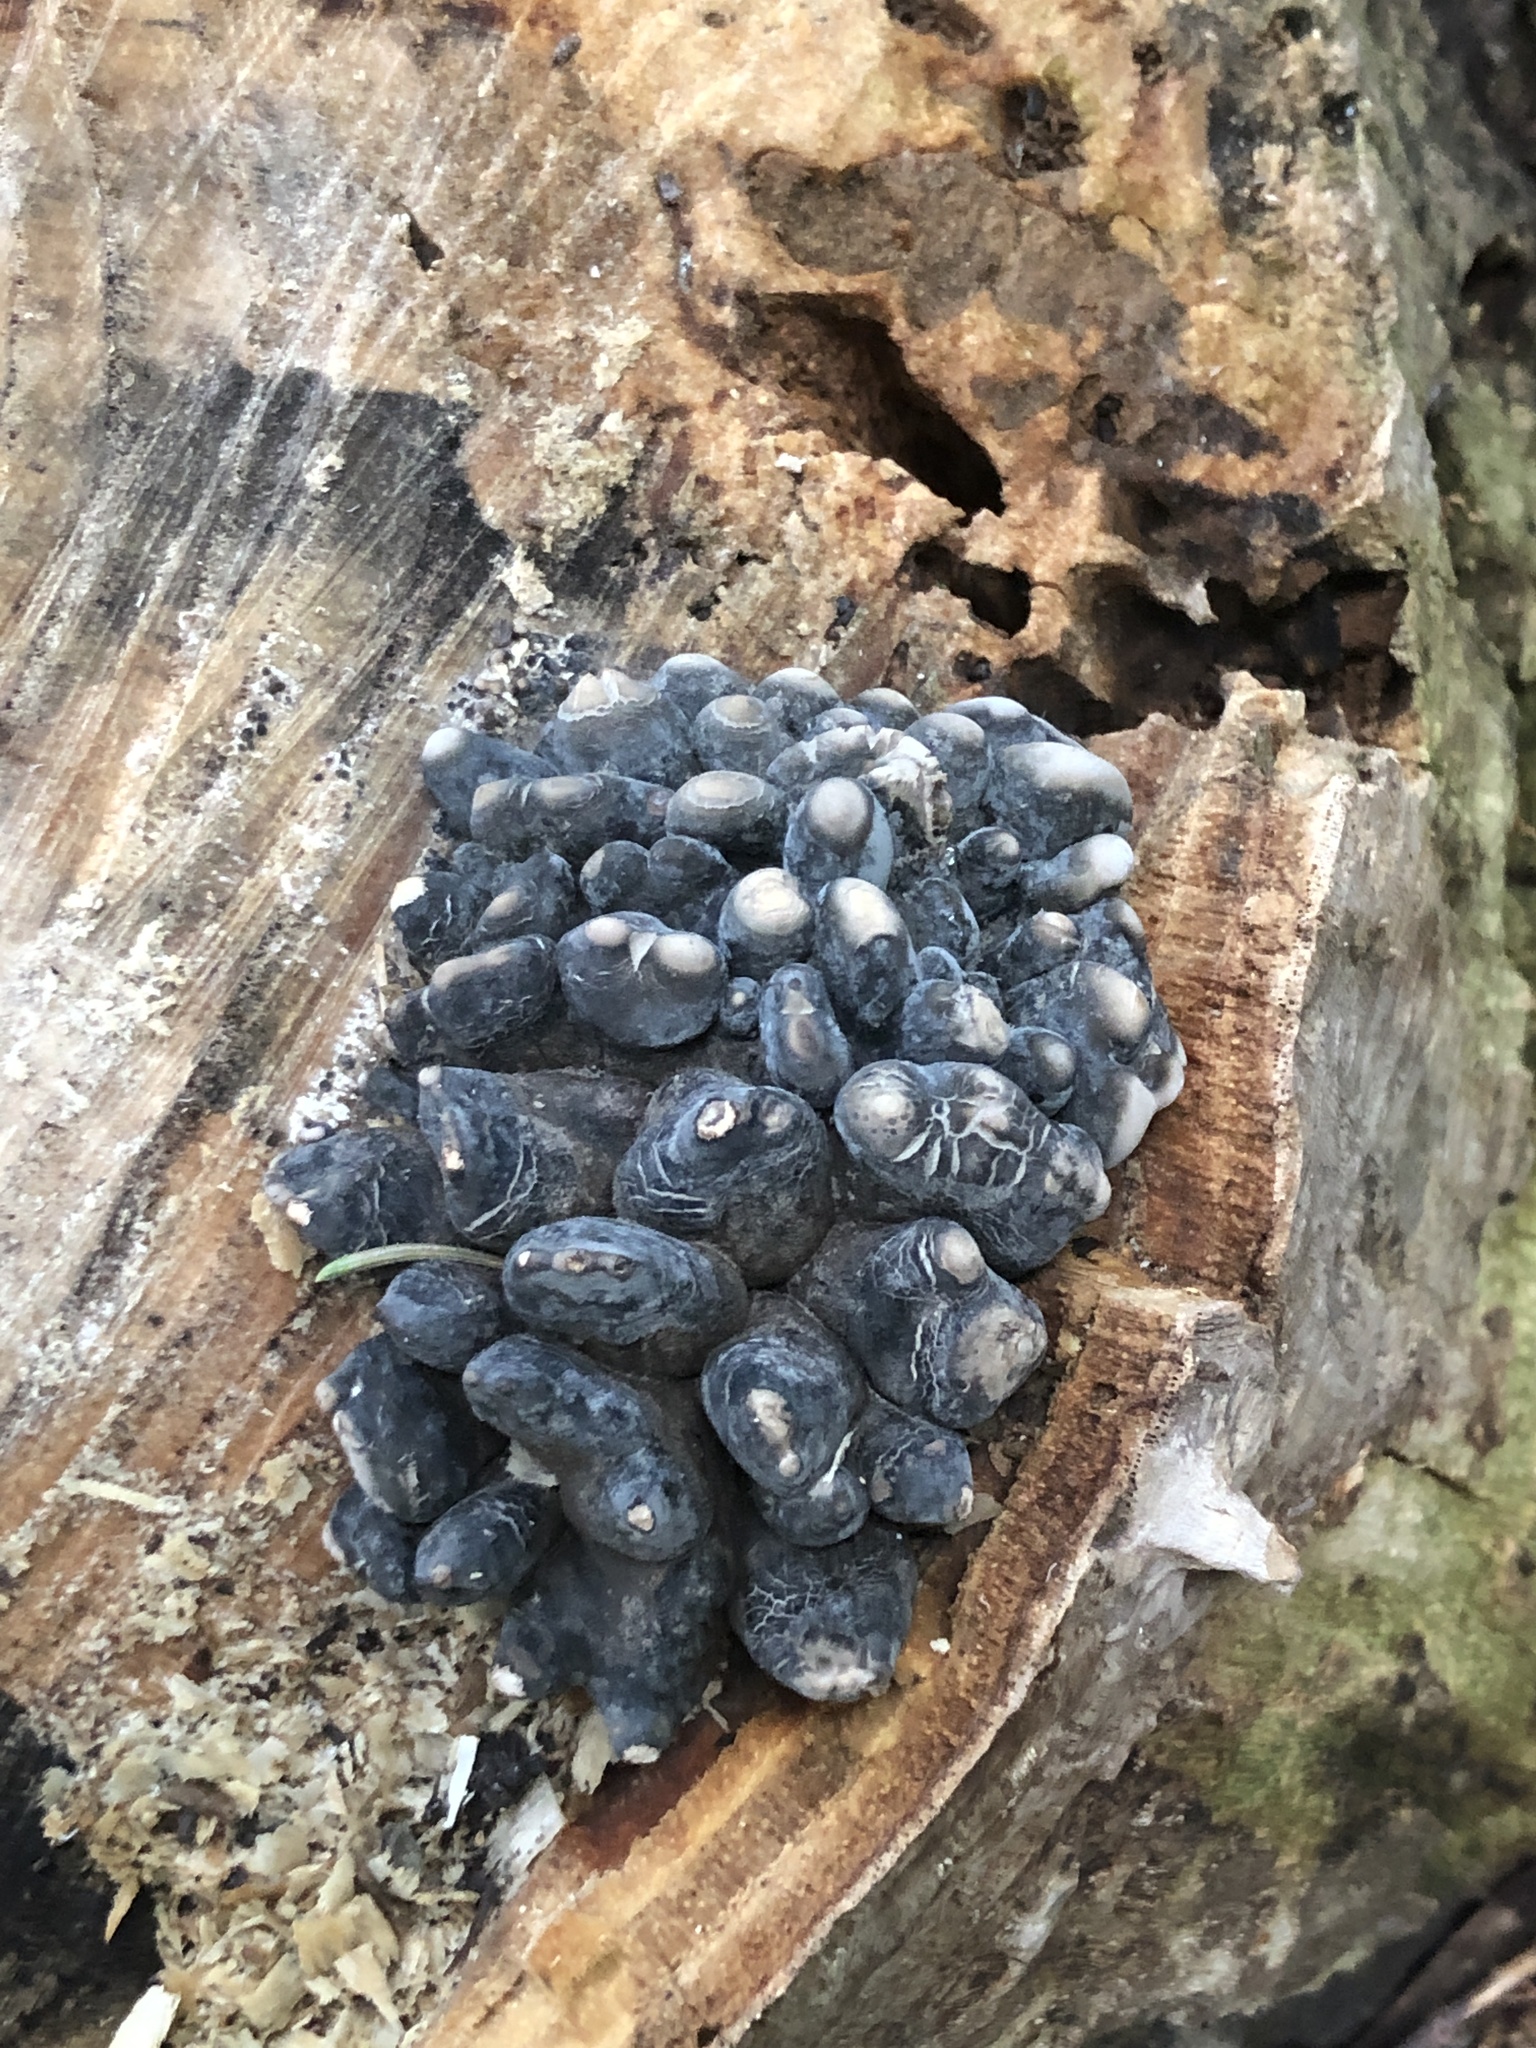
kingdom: Fungi
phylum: Ascomycota
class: Sordariomycetes
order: Xylariales
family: Xylariaceae
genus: Xylaria
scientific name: Xylaria polymorpha
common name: Dead man's fingers
